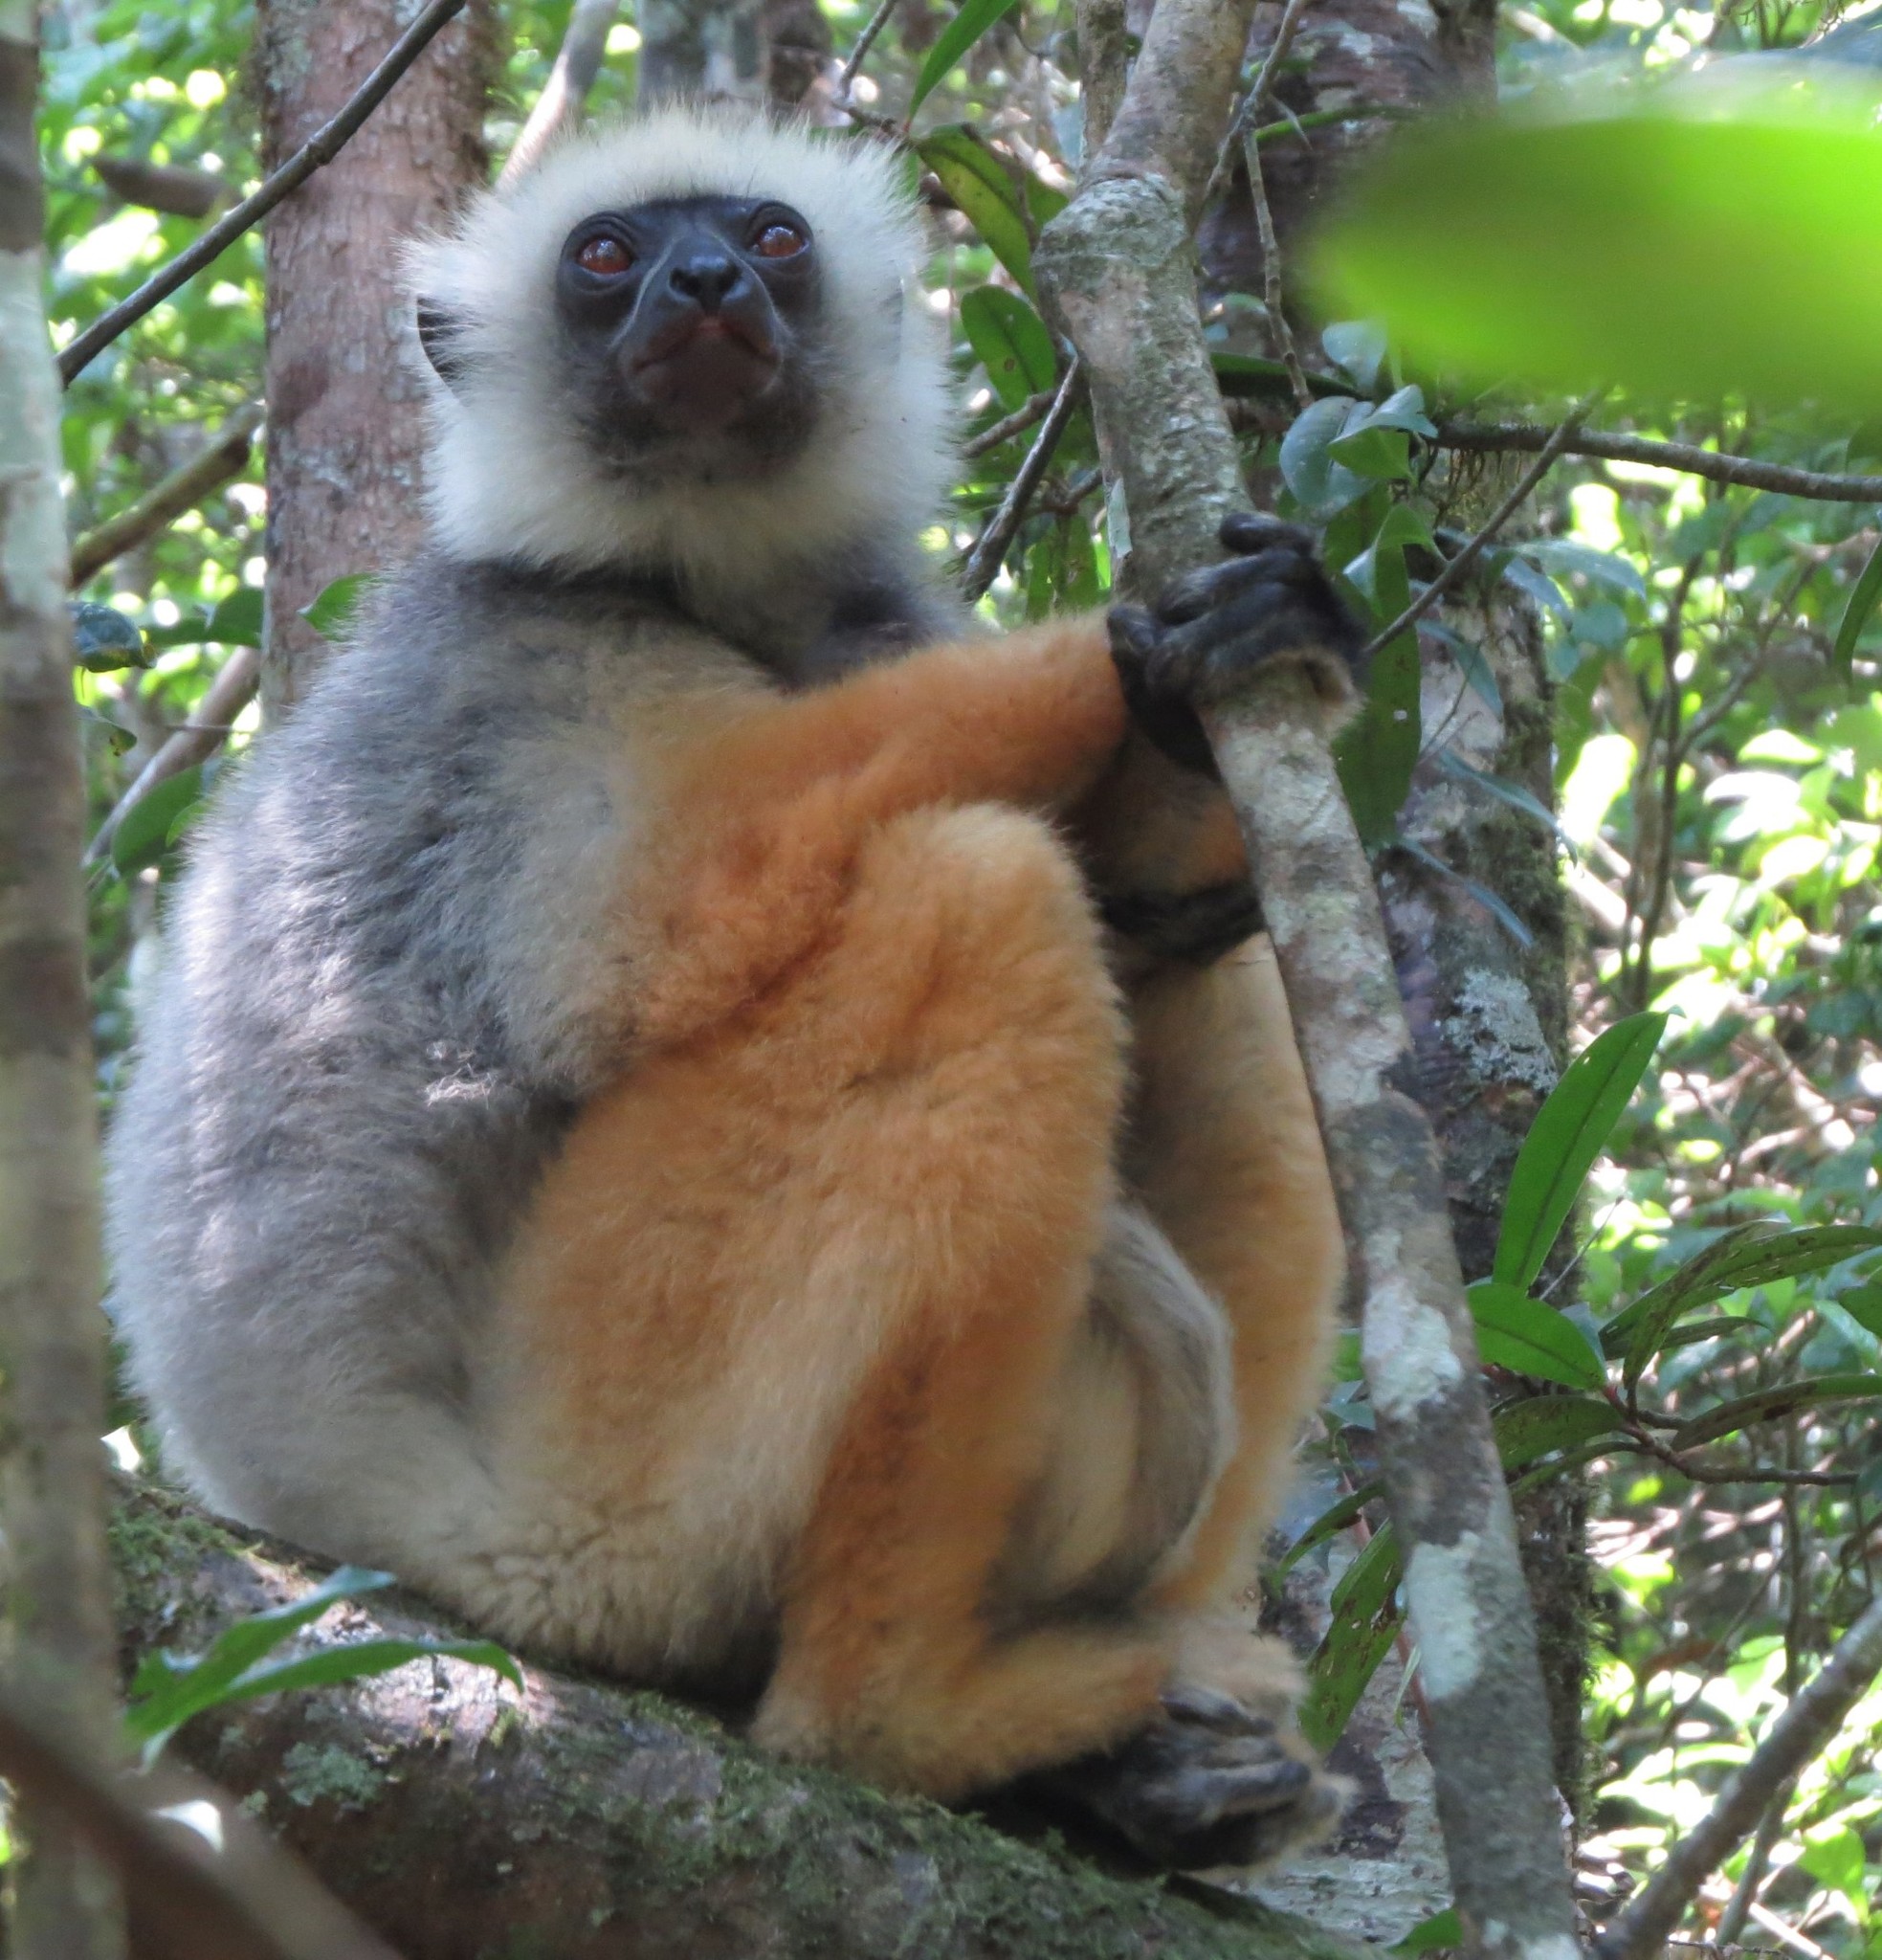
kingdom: Animalia
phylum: Chordata
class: Mammalia
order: Primates
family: Indriidae
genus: Propithecus
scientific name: Propithecus diadema
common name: Diademed sifaka
